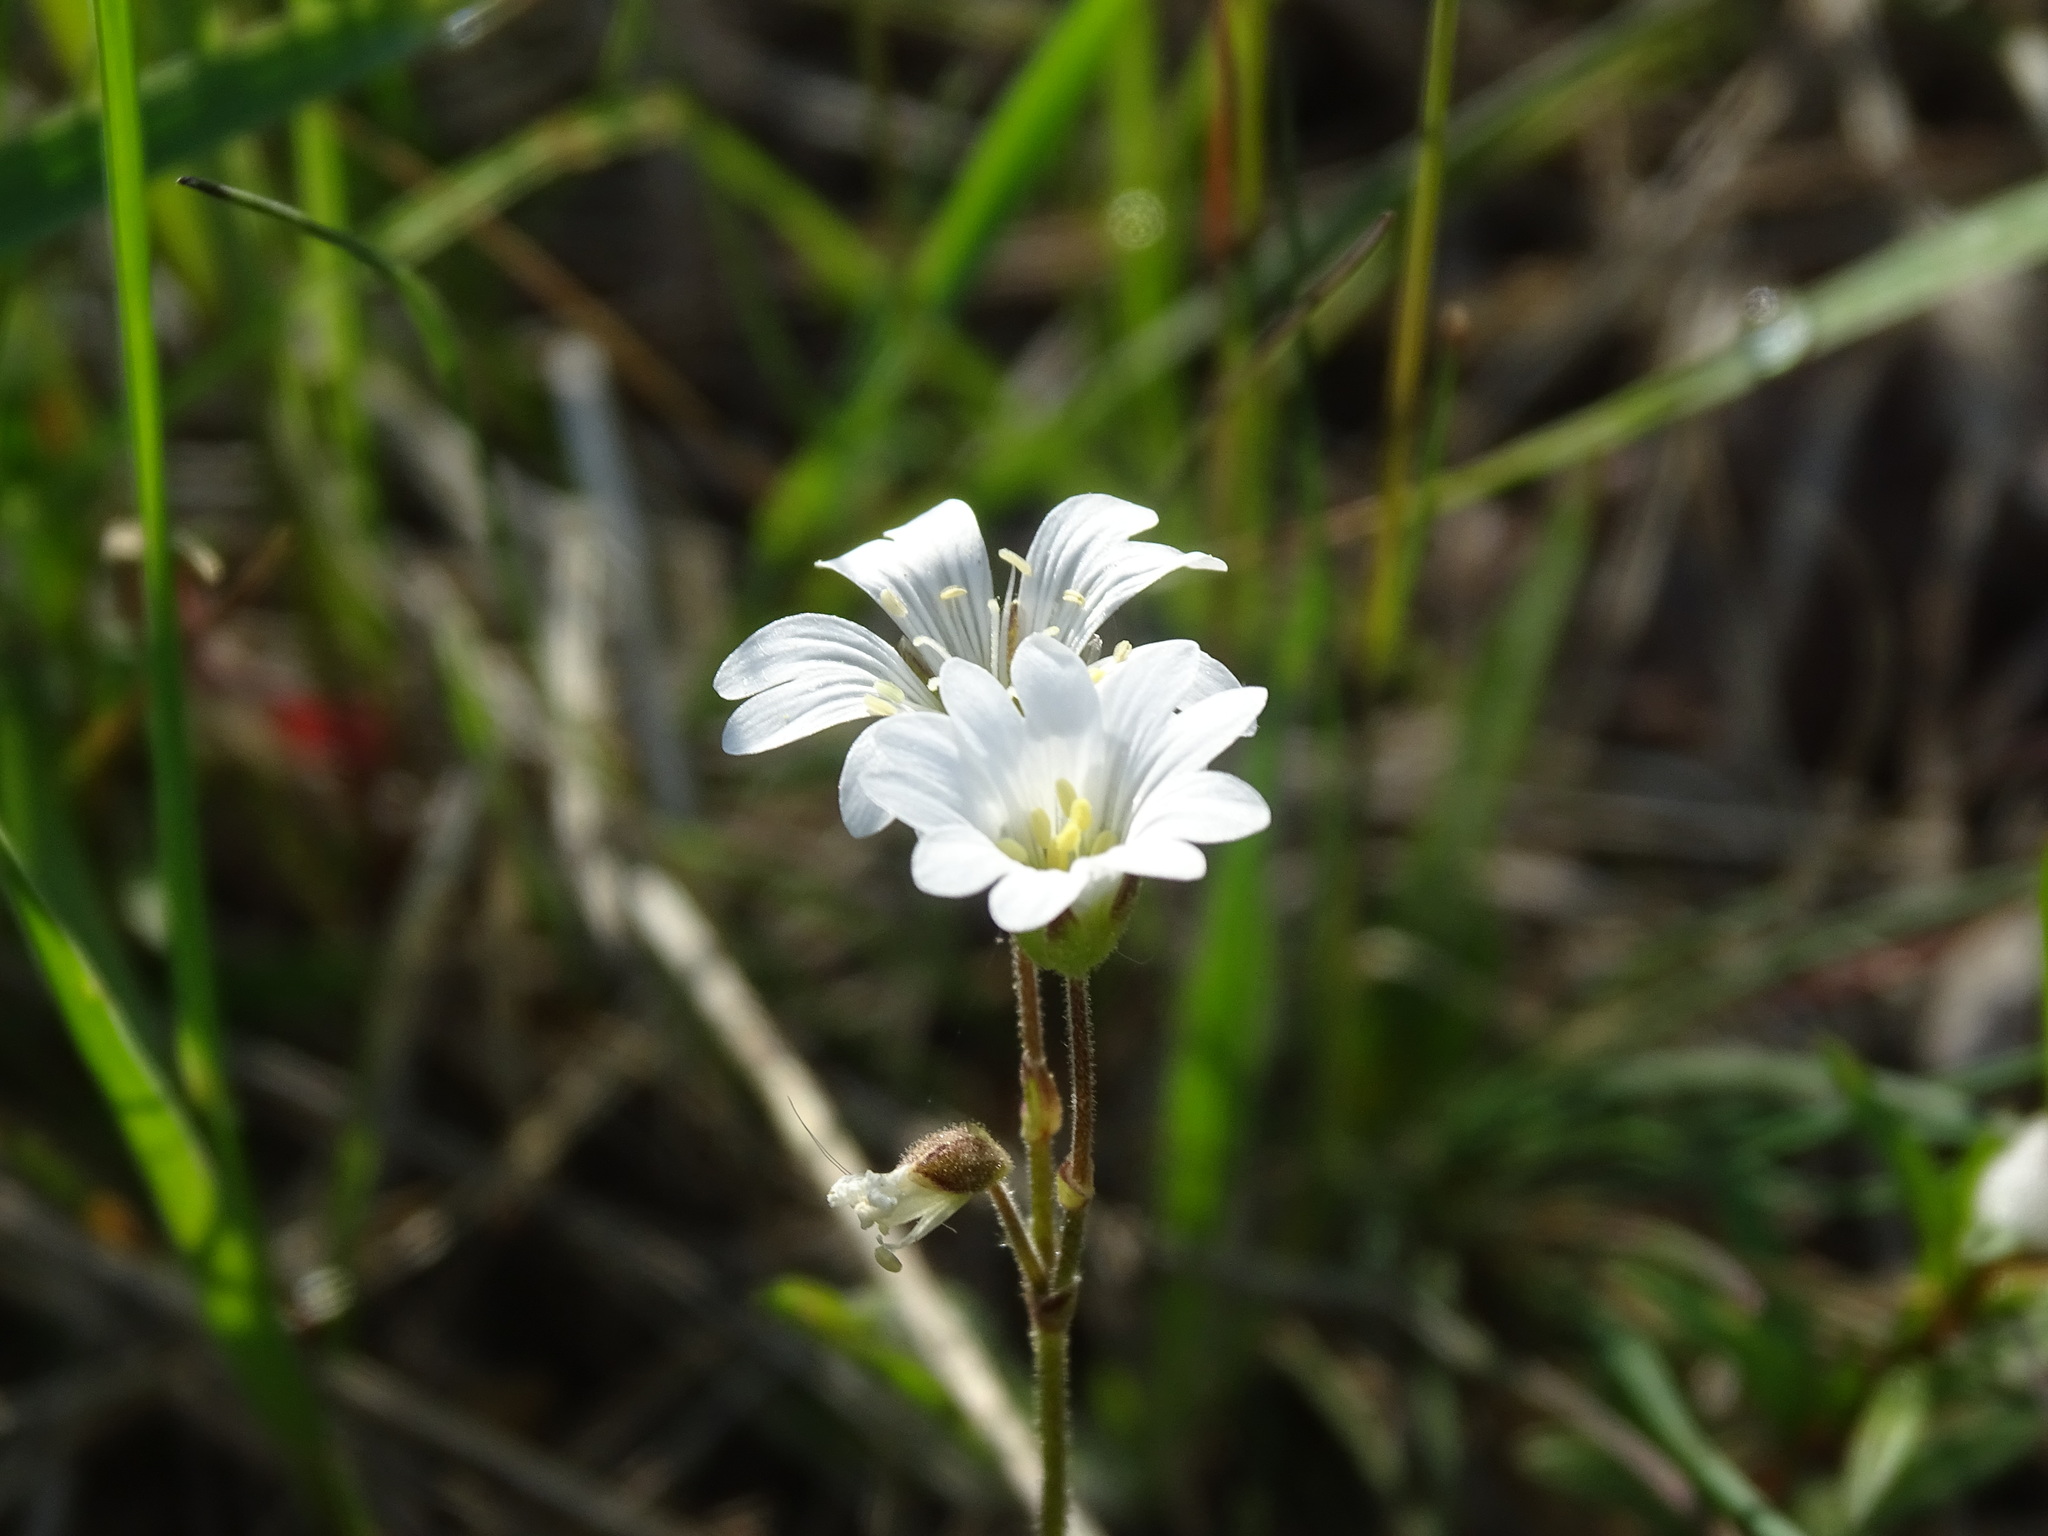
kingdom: Plantae
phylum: Tracheophyta
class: Magnoliopsida
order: Caryophyllales
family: Caryophyllaceae
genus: Cerastium
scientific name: Cerastium arvense
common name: Field mouse-ear
